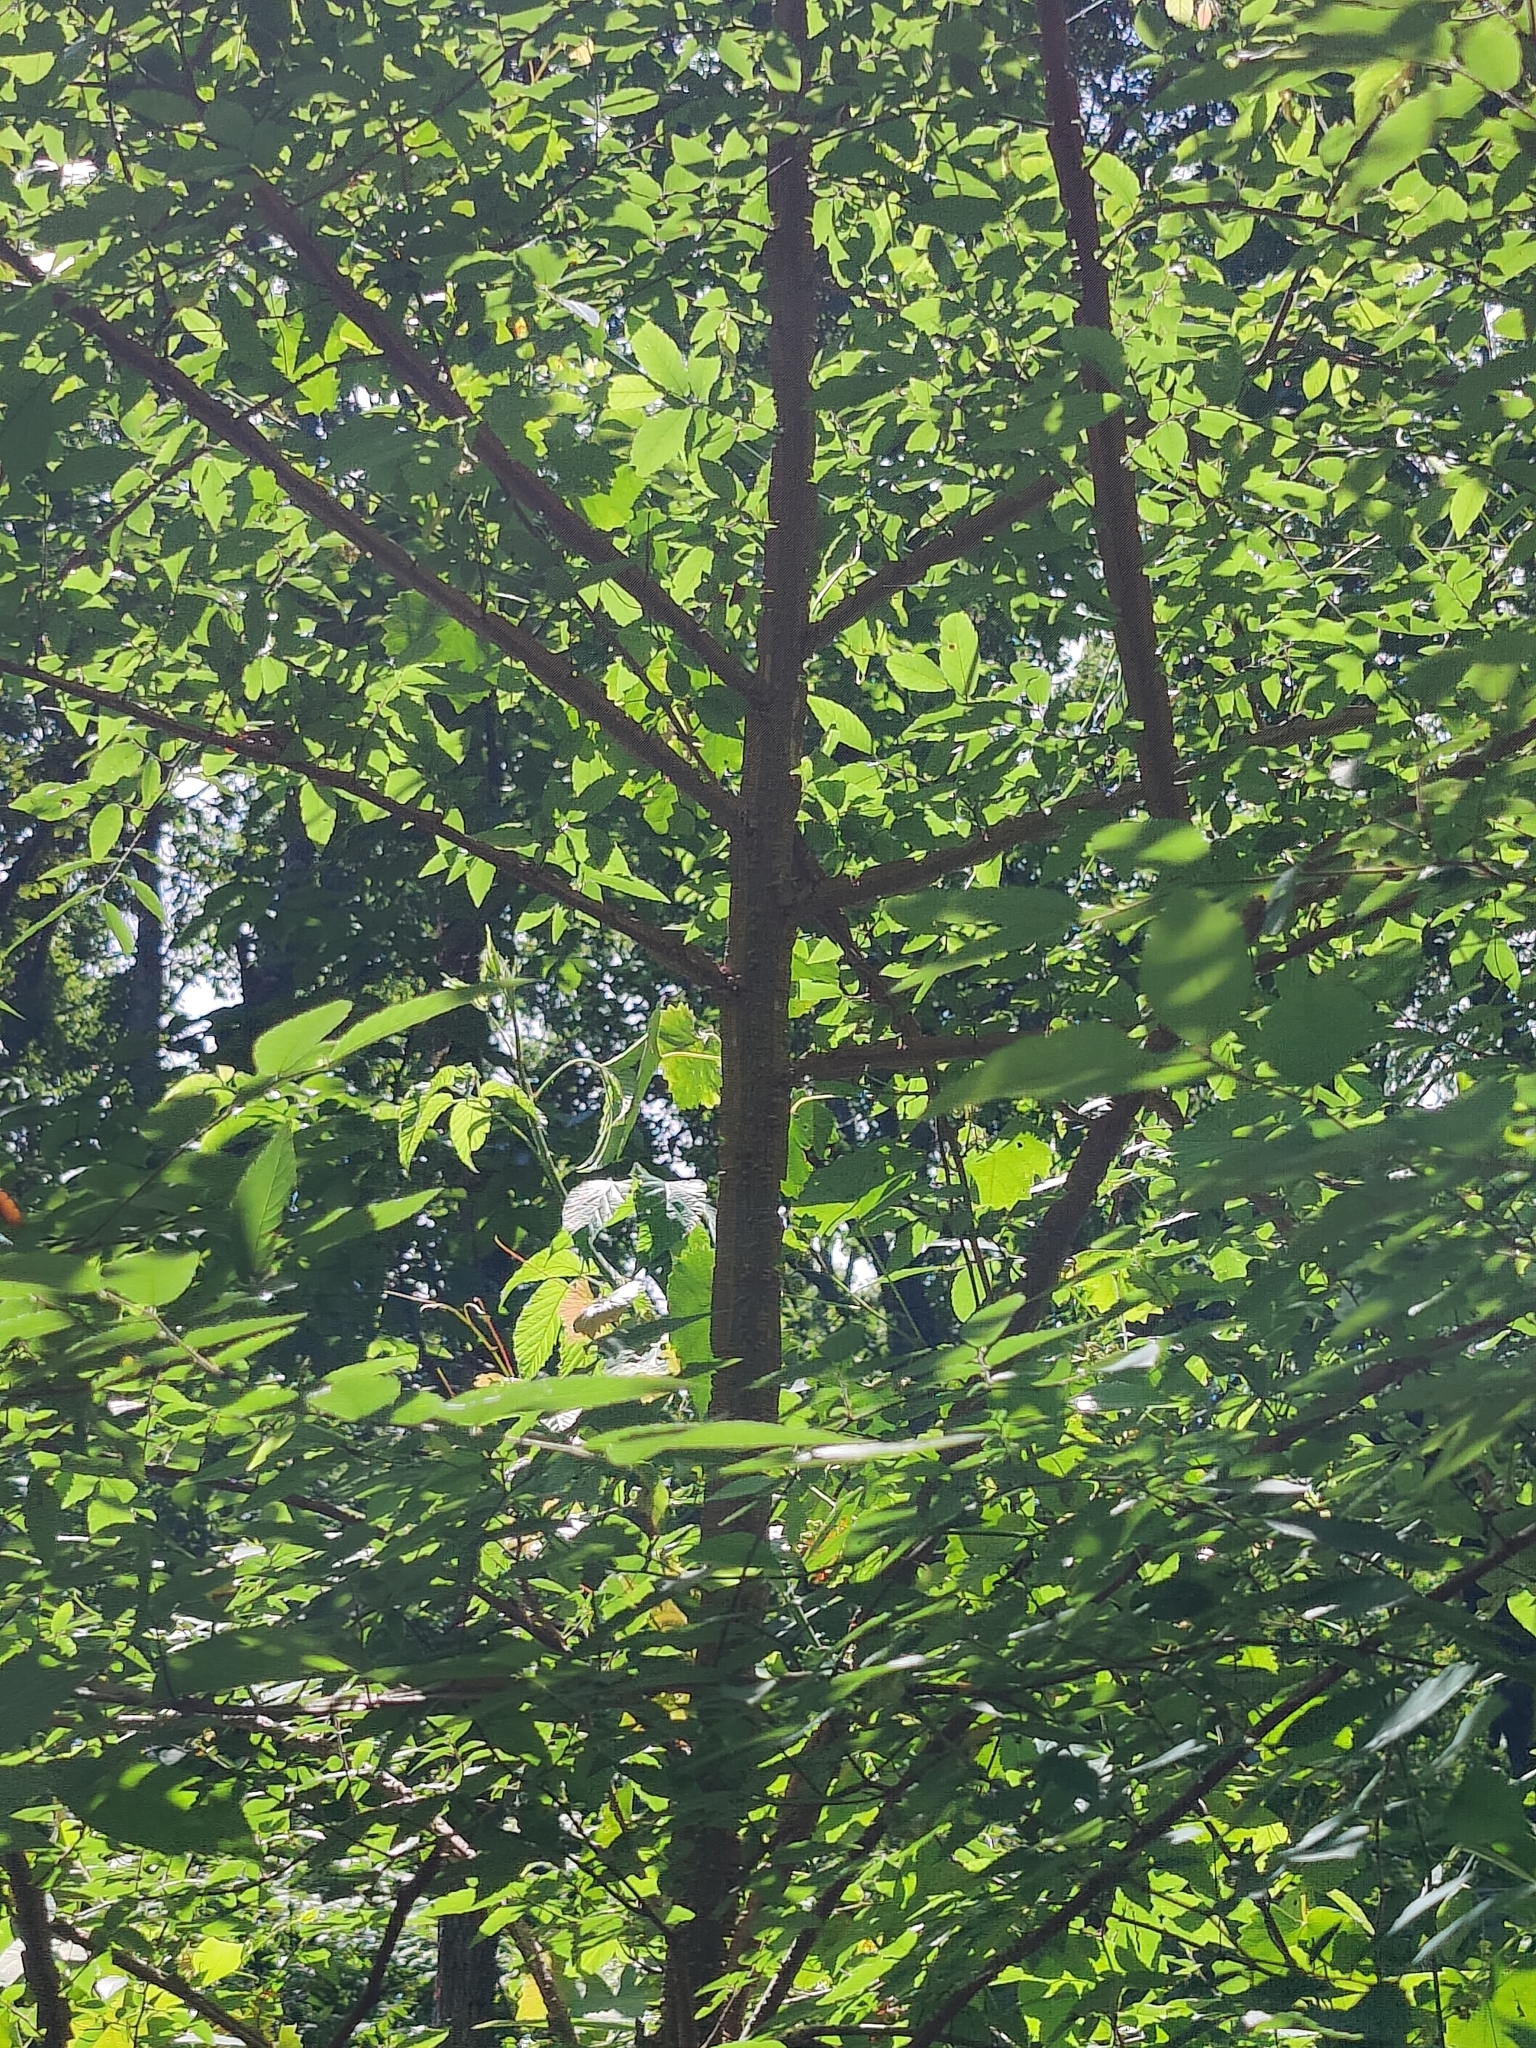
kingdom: Plantae
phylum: Tracheophyta
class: Magnoliopsida
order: Rosales
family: Ulmaceae
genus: Ulmus
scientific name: Ulmus alata
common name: Winged elm
